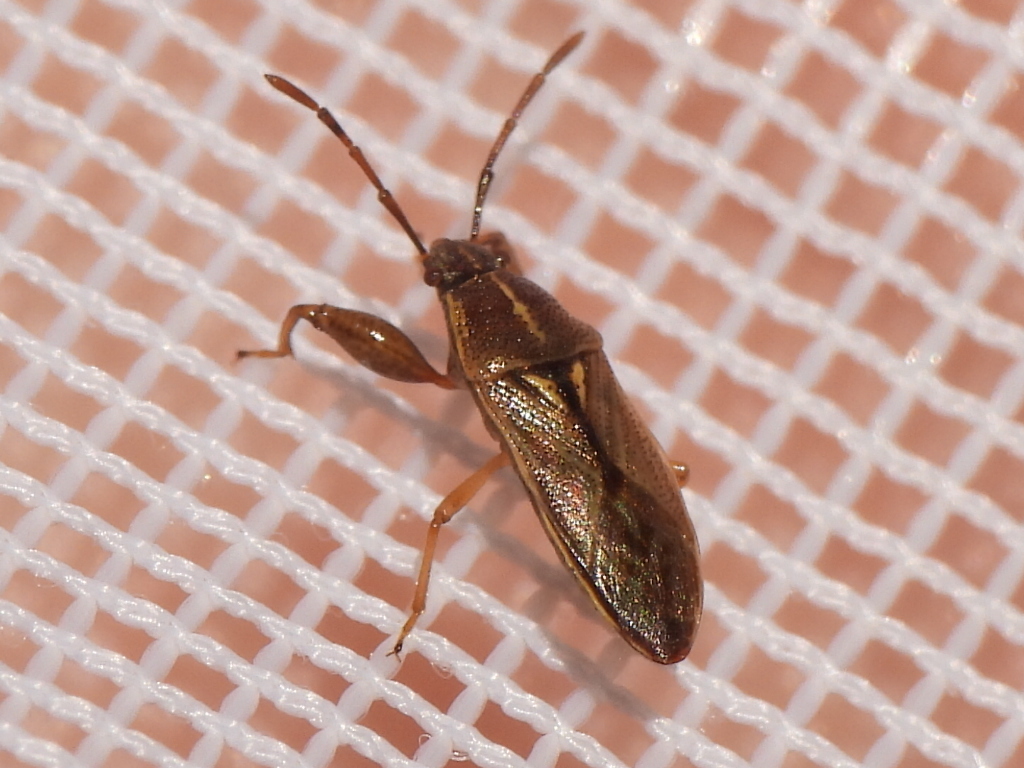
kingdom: Animalia
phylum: Arthropoda
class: Insecta
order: Hemiptera
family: Pachygronthidae
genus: Oedancala
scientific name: Oedancala dorsalis
